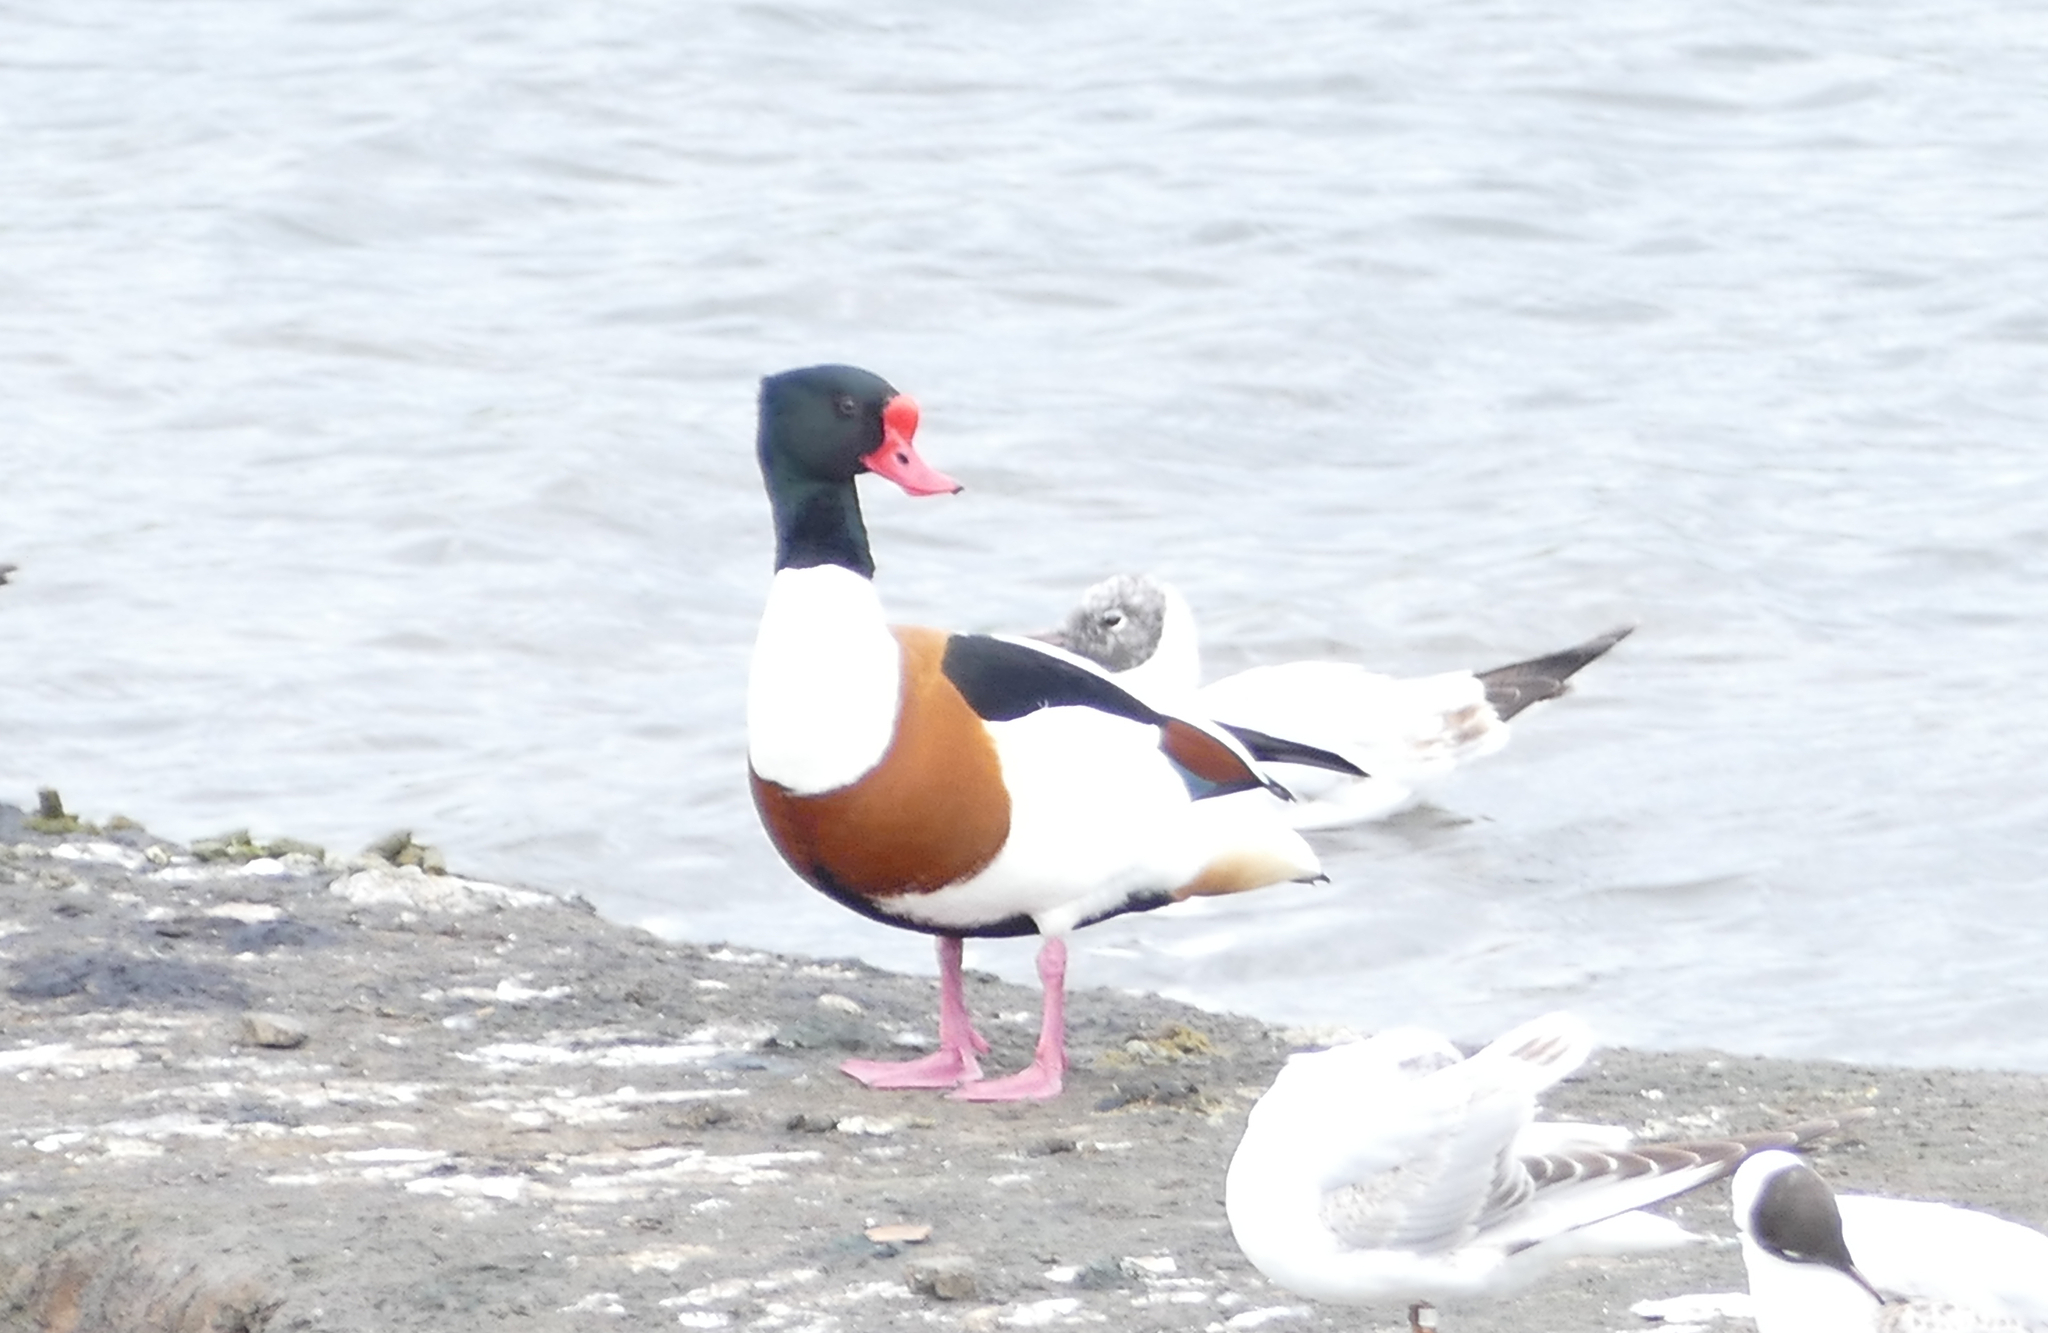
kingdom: Animalia
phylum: Chordata
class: Aves
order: Anseriformes
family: Anatidae
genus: Tadorna
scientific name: Tadorna tadorna
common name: Common shelduck
